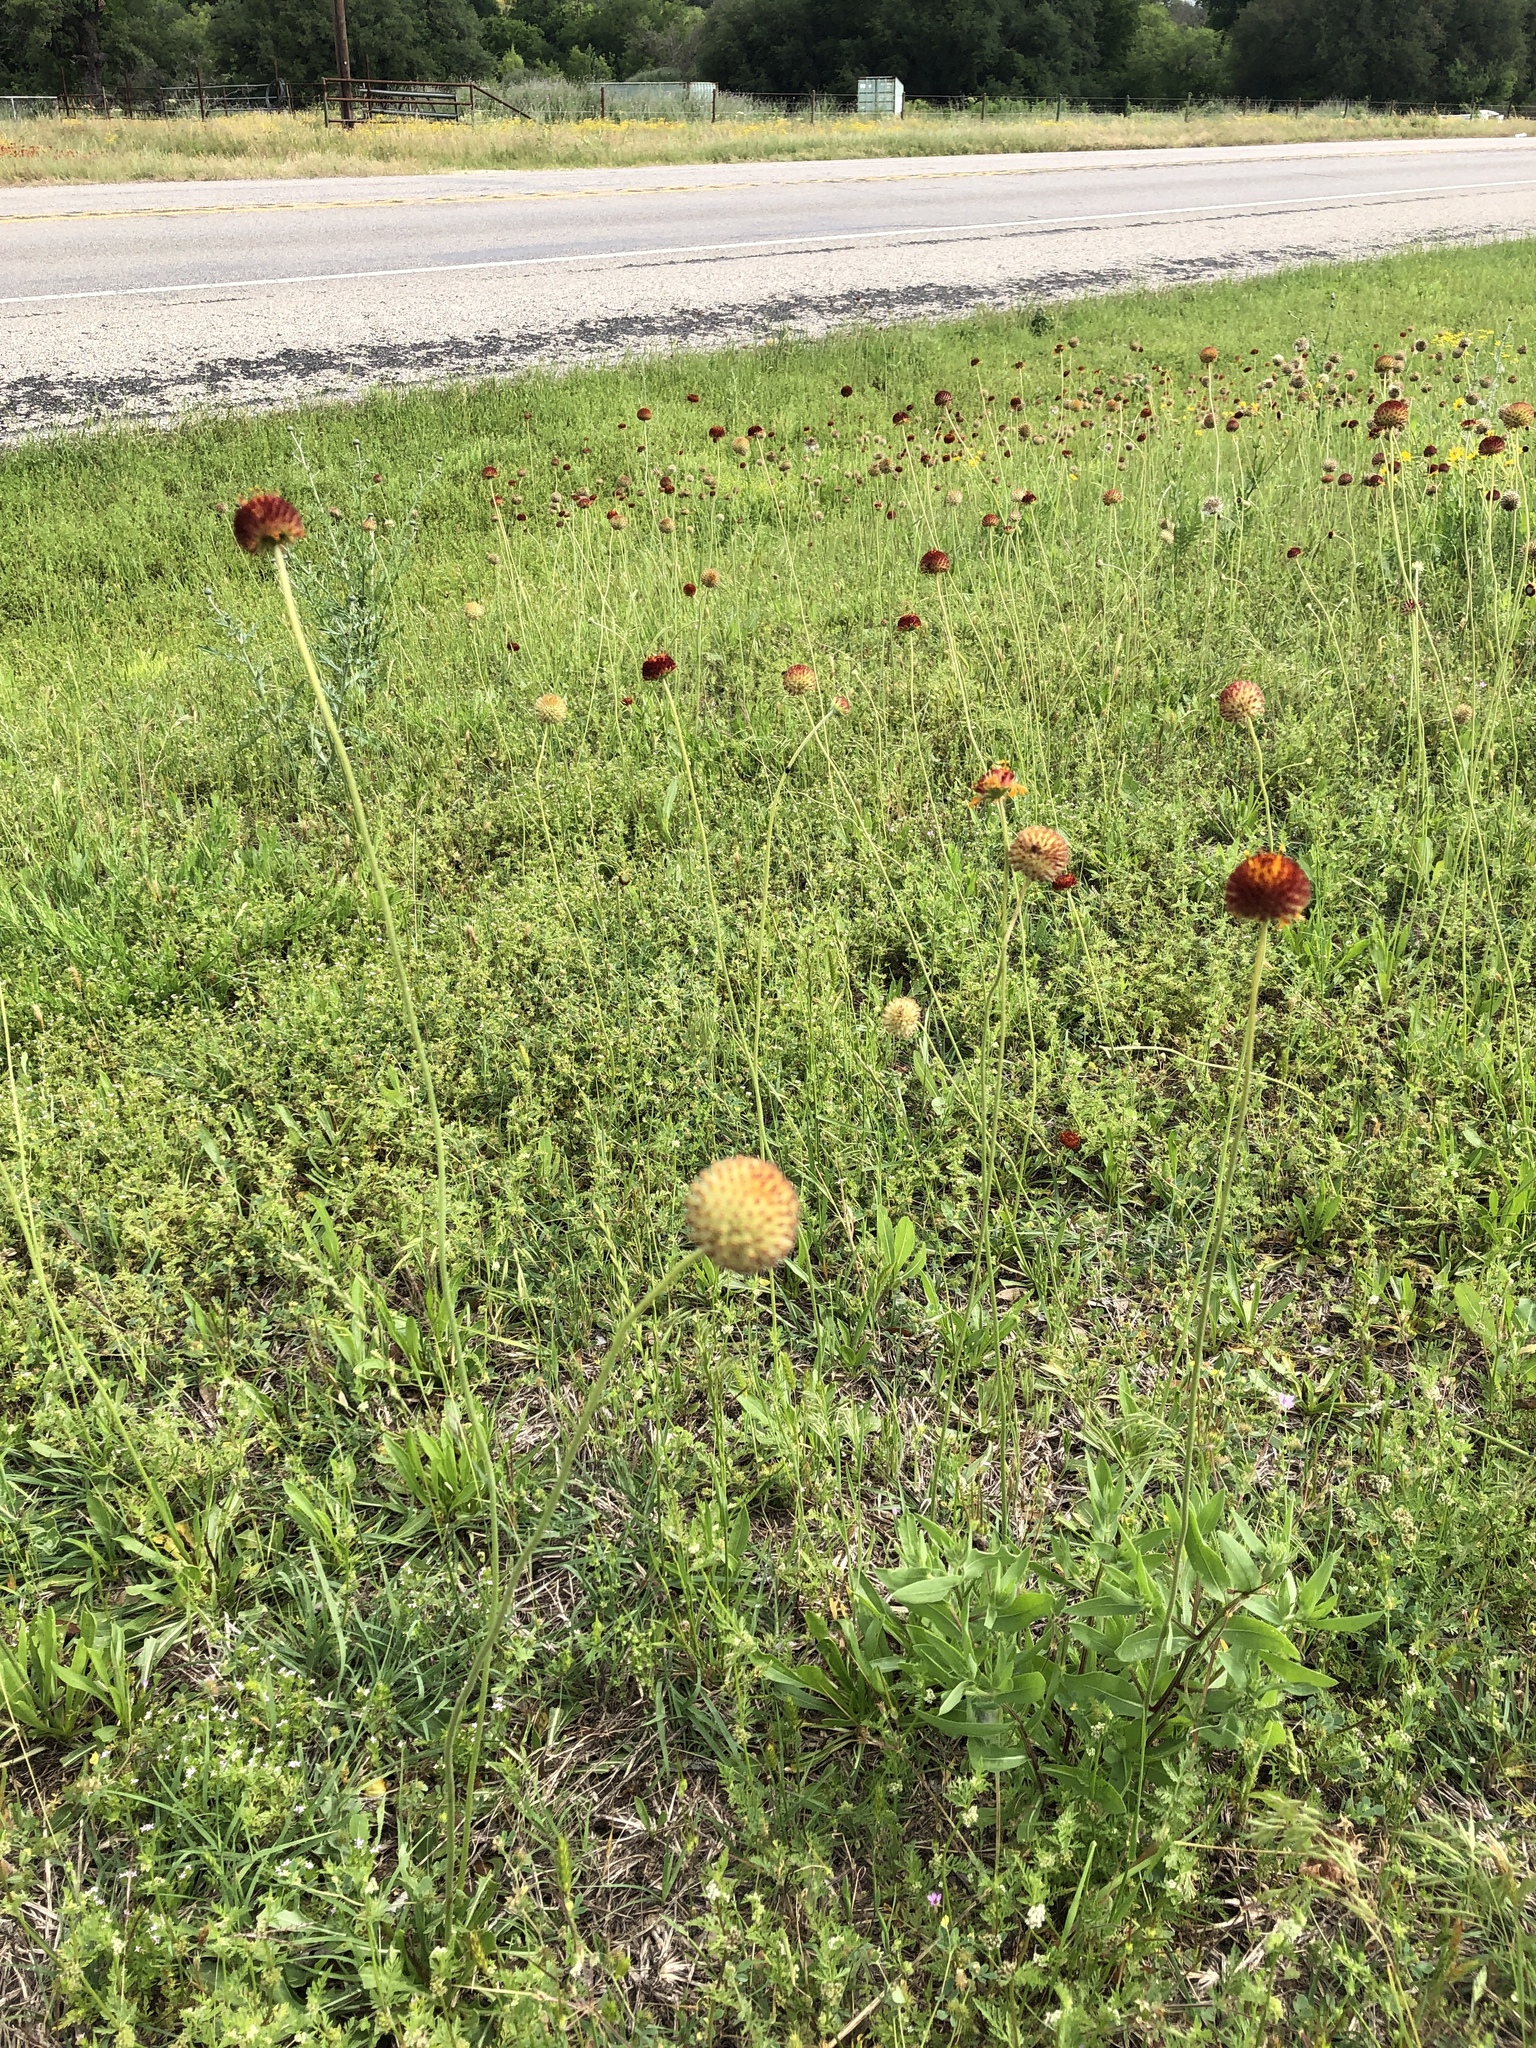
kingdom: Plantae
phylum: Tracheophyta
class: Magnoliopsida
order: Asterales
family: Asteraceae
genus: Gaillardia
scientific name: Gaillardia suavis
